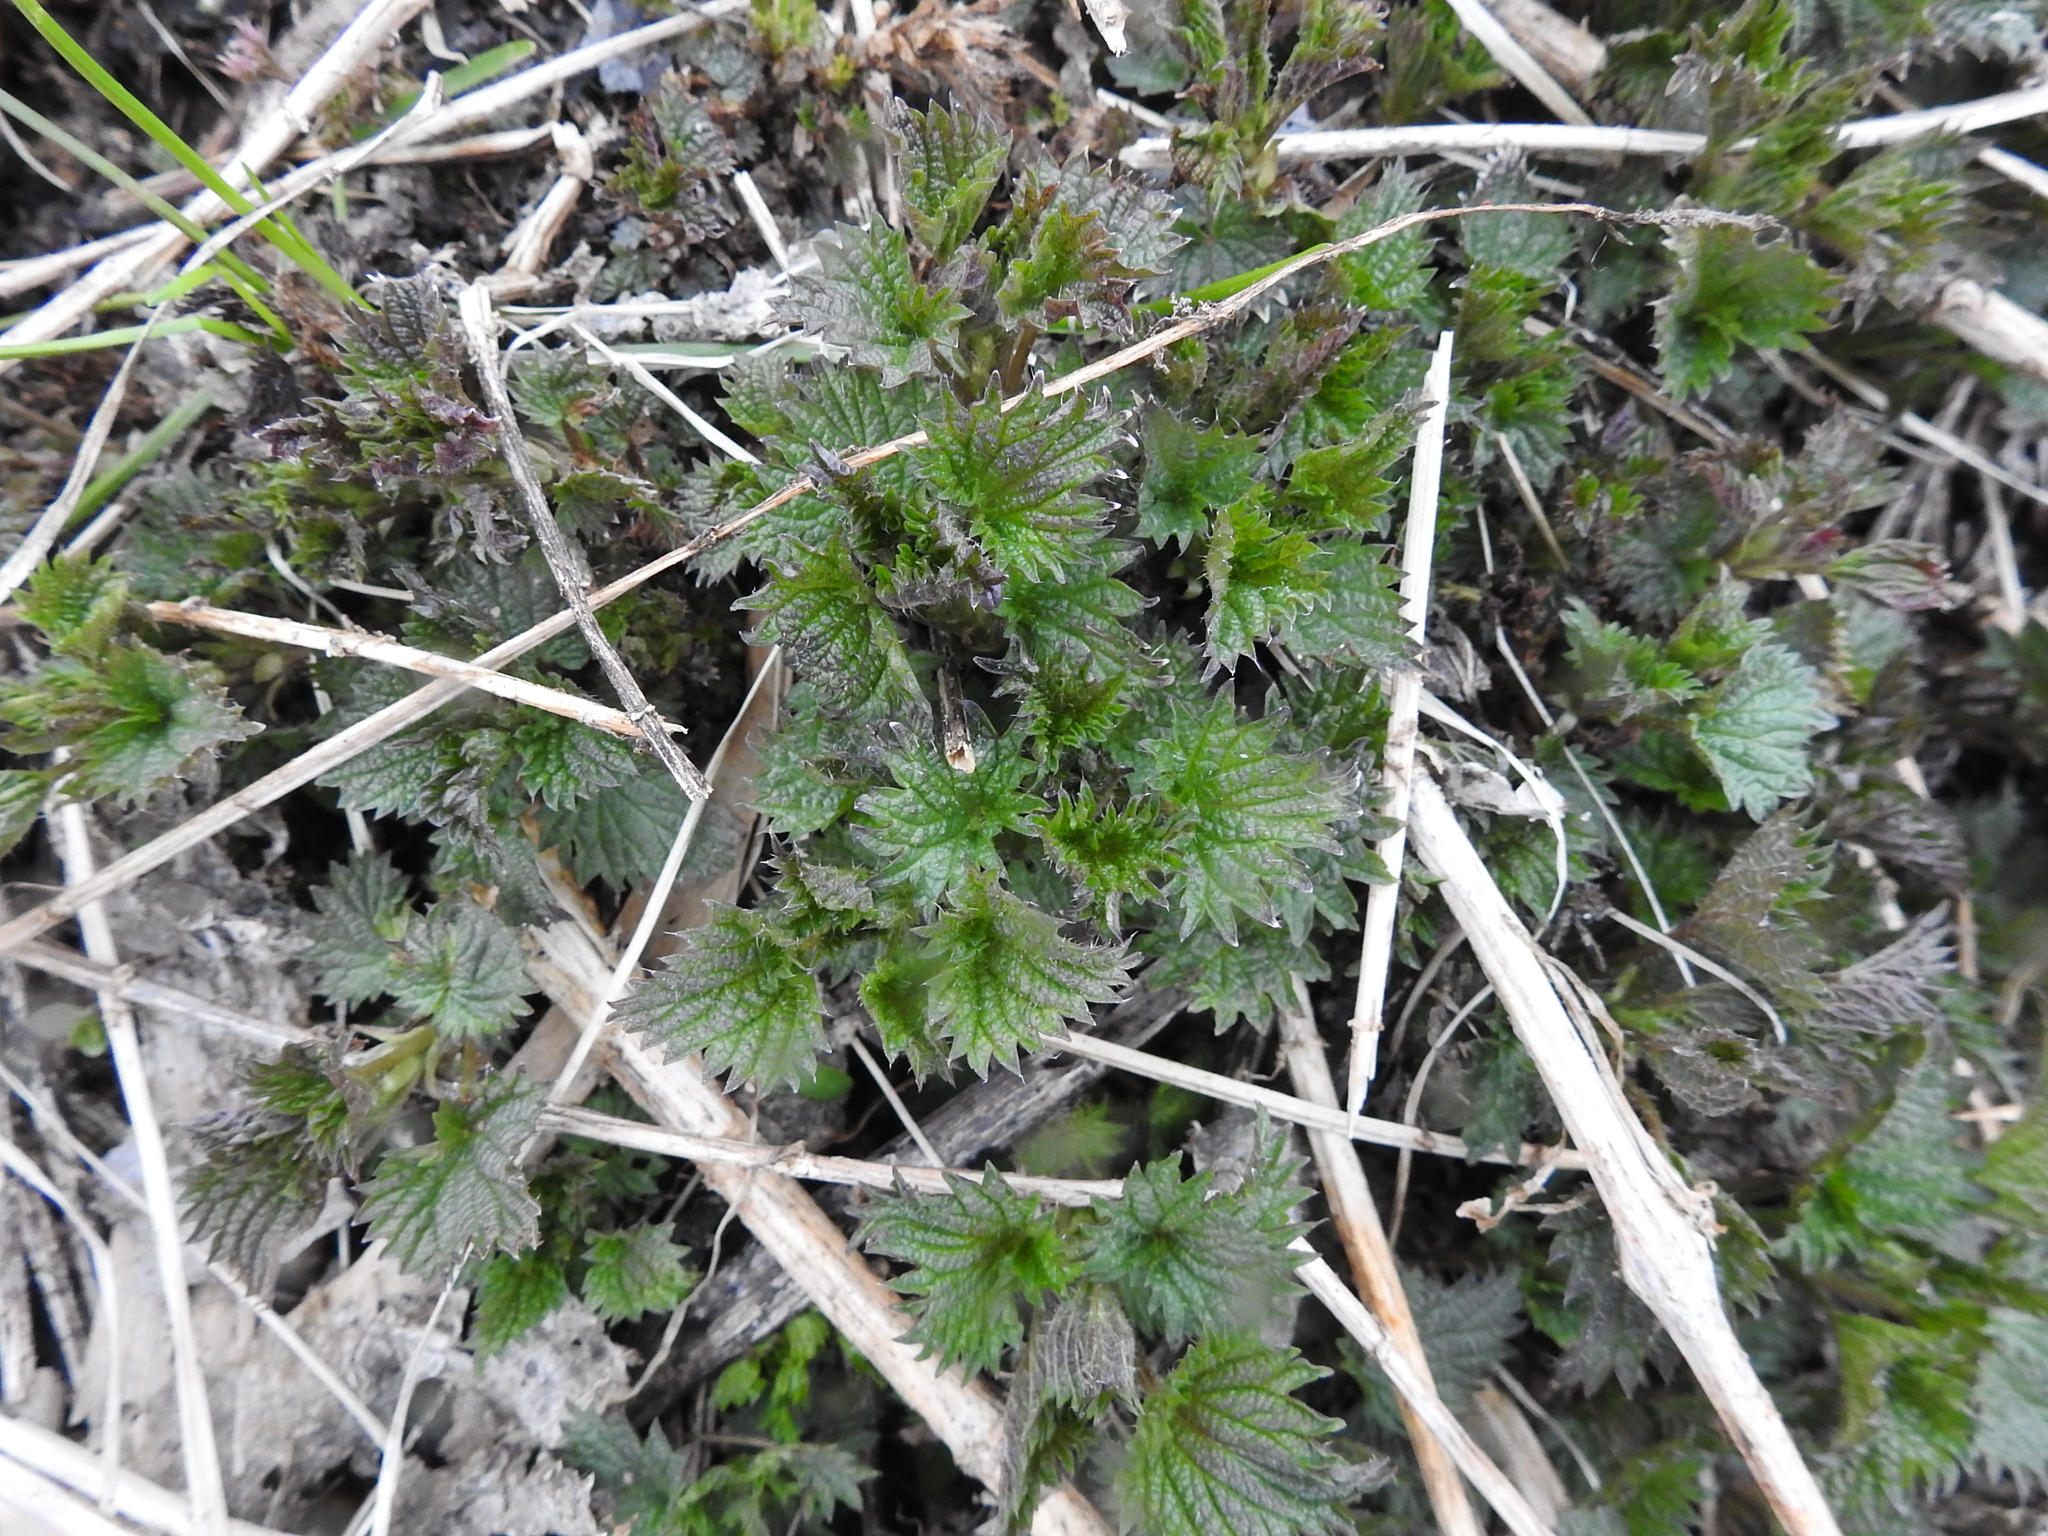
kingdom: Plantae
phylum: Tracheophyta
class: Magnoliopsida
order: Rosales
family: Urticaceae
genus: Urtica
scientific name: Urtica dioica
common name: Common nettle
